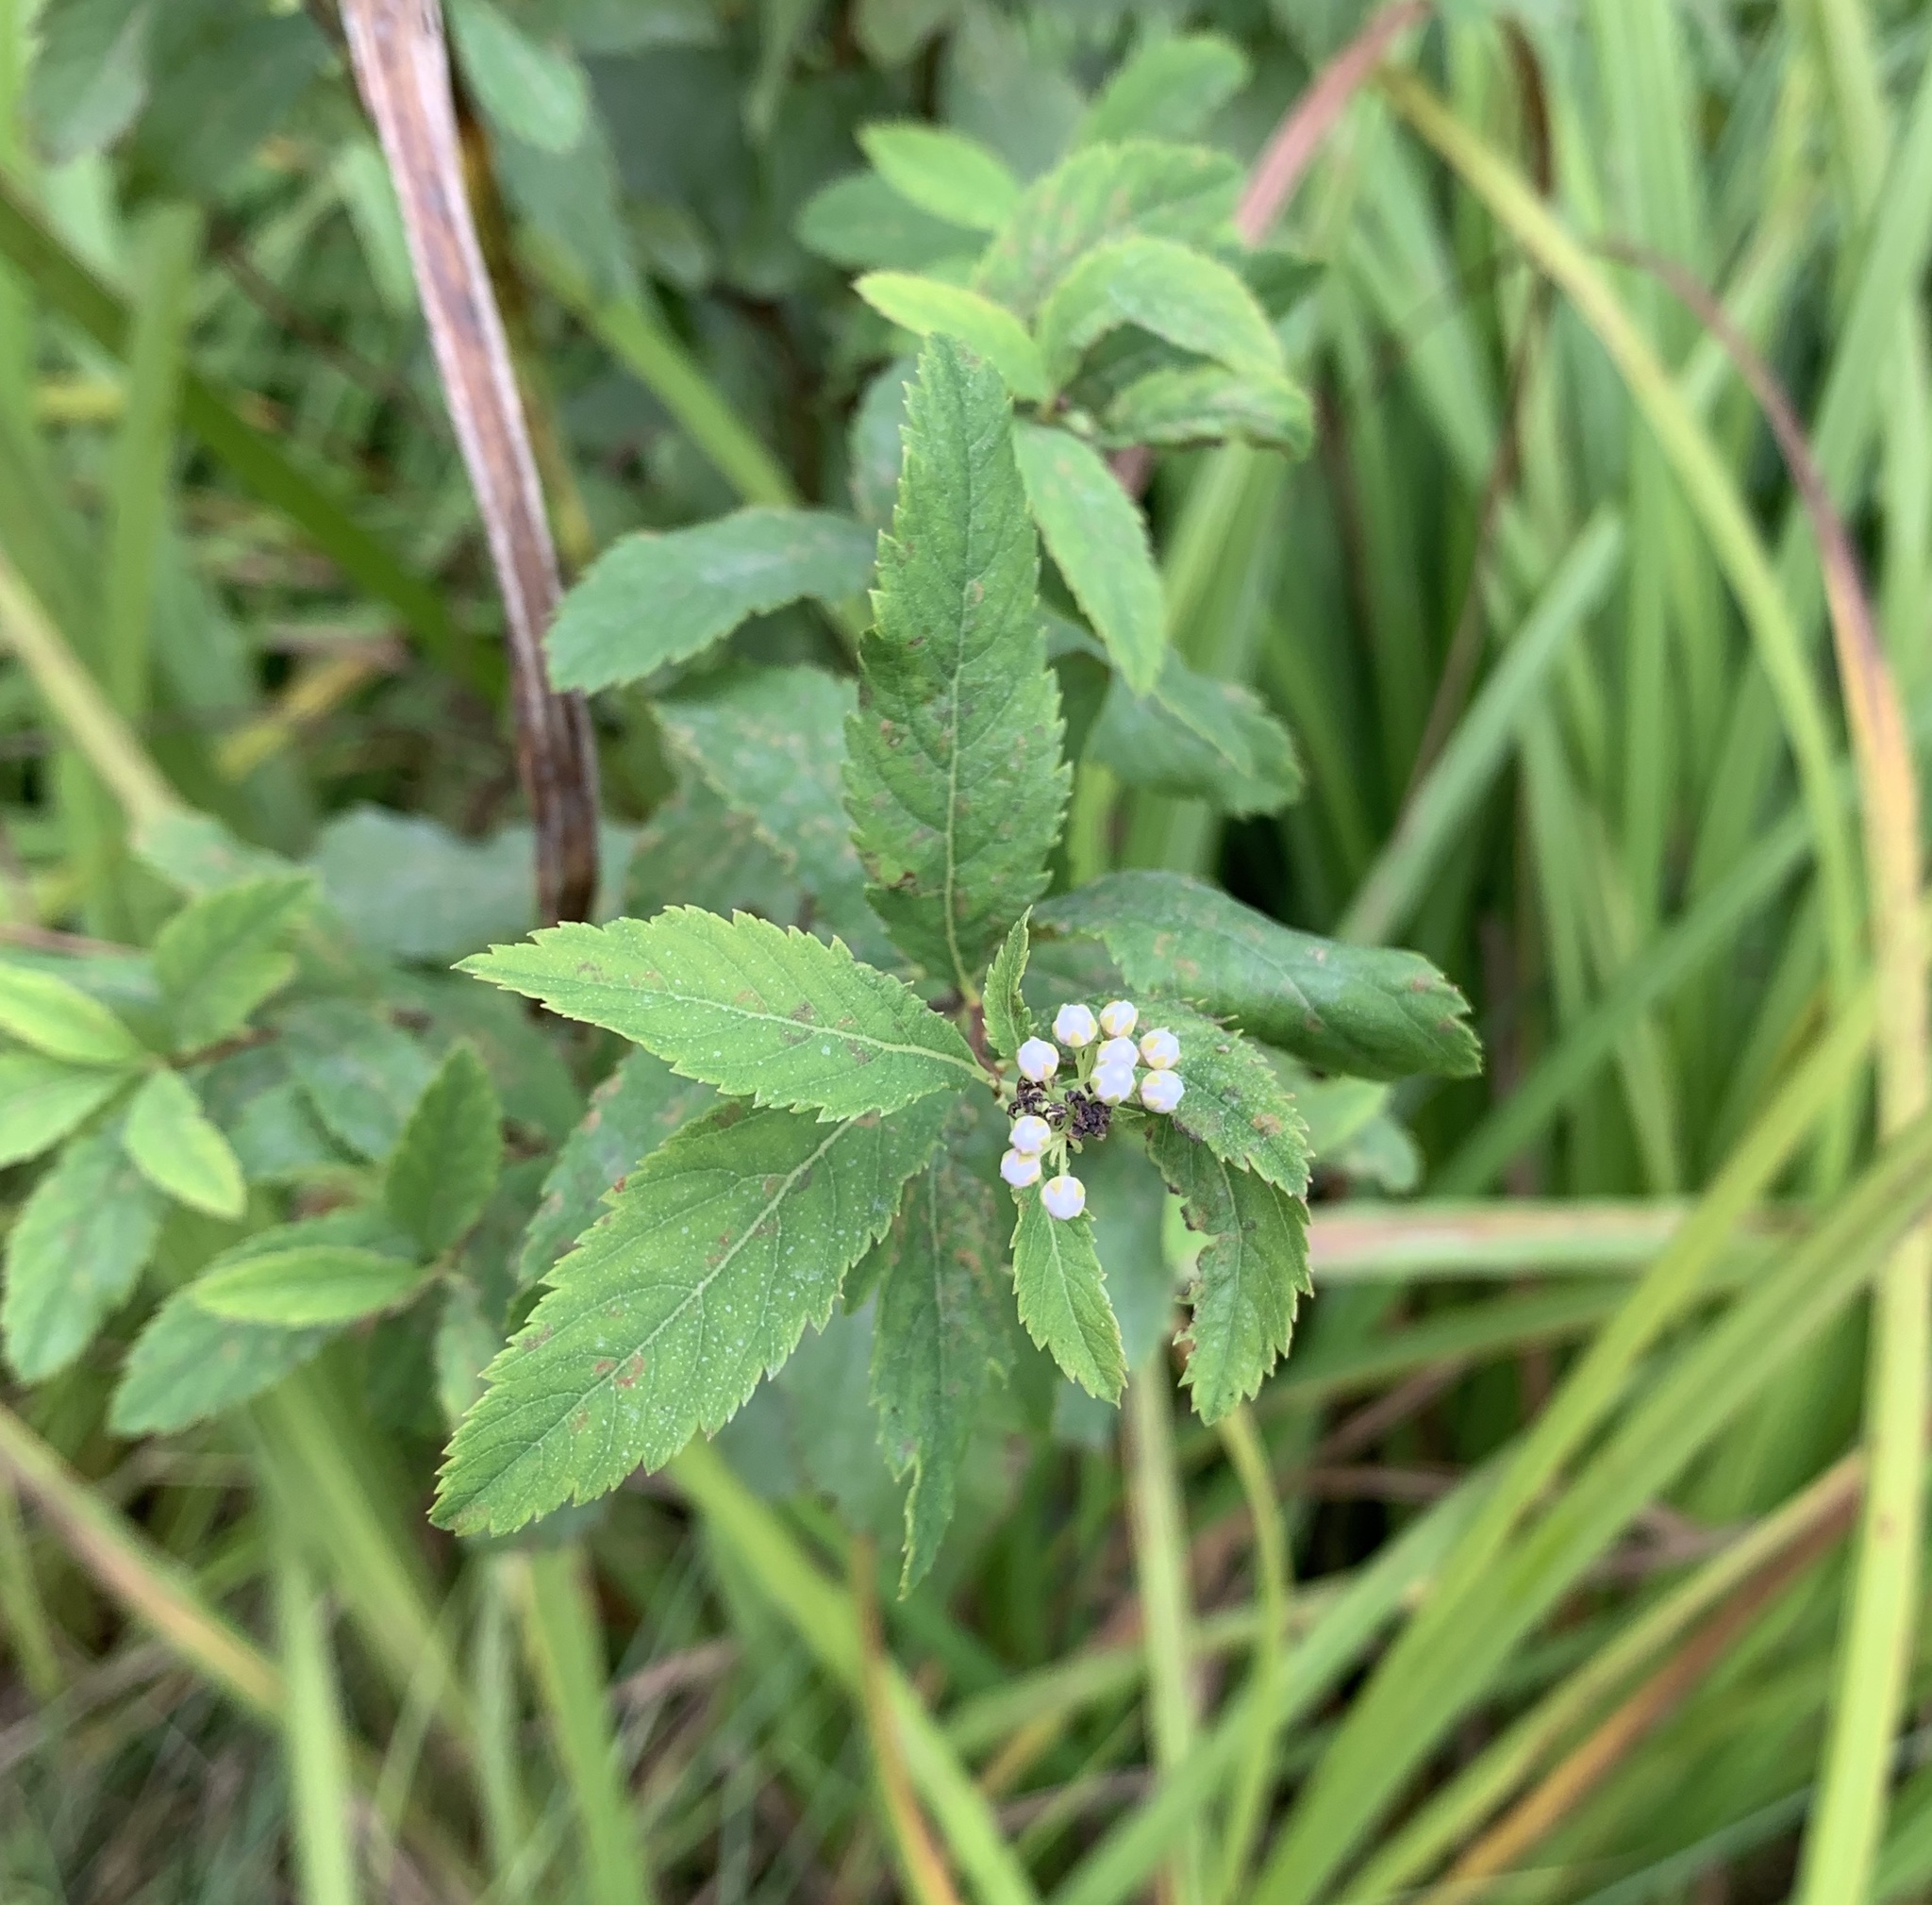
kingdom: Plantae
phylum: Tracheophyta
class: Magnoliopsida
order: Rosales
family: Rosaceae
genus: Spiraea
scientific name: Spiraea alba
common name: Pale bridewort
